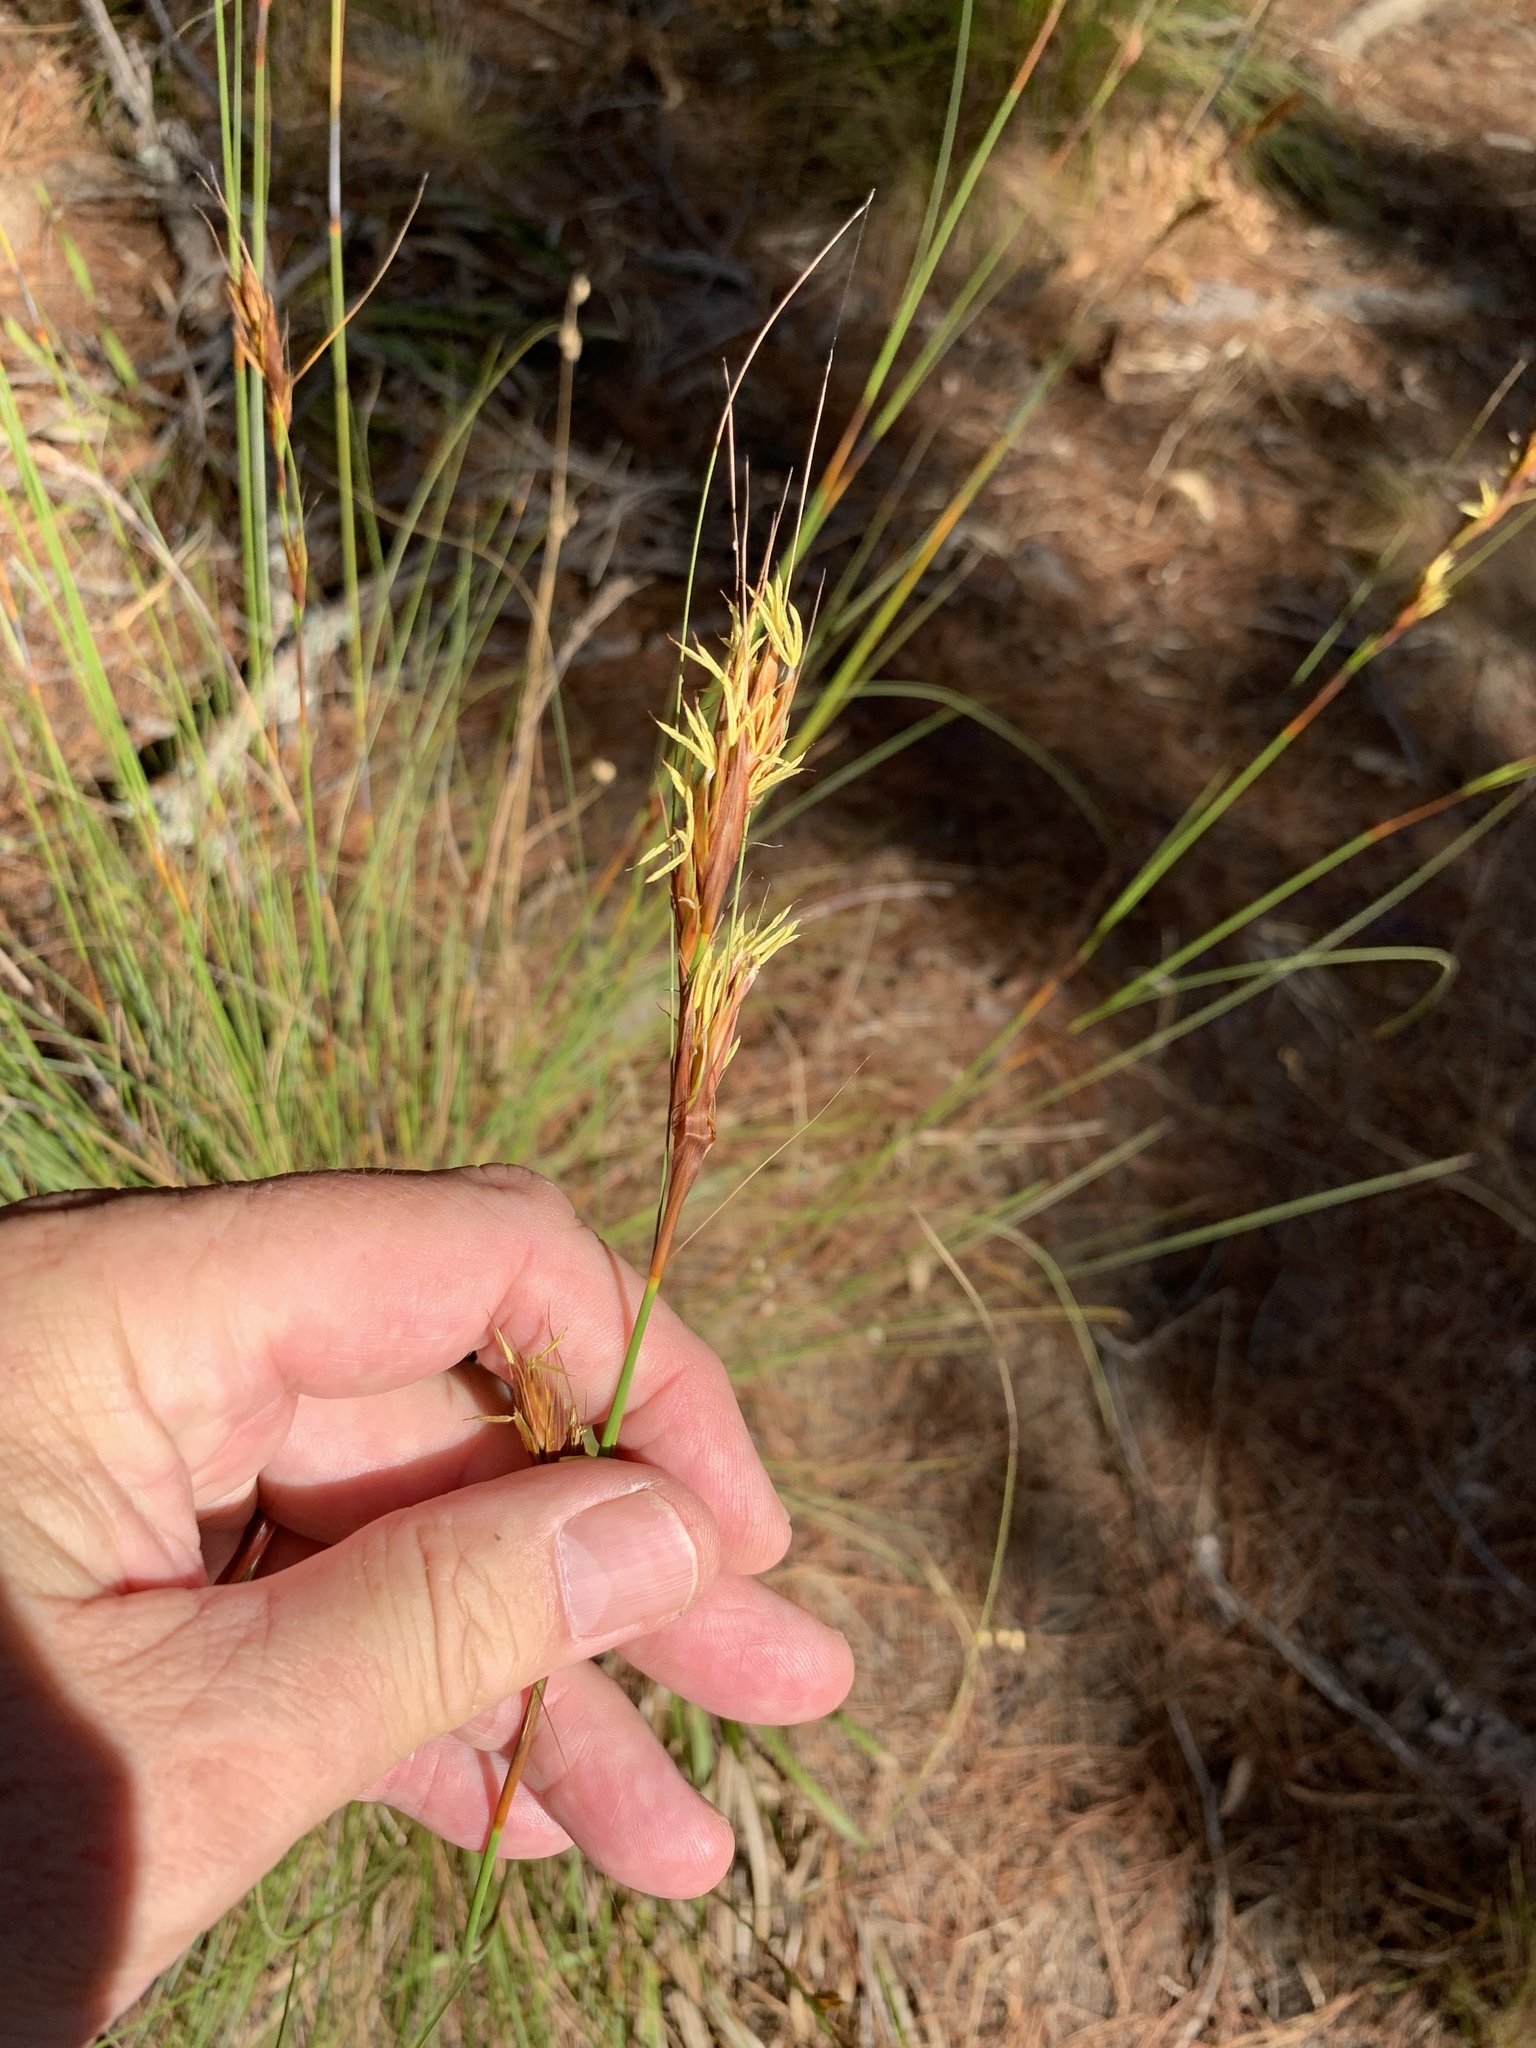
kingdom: Plantae
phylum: Tracheophyta
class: Liliopsida
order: Poales
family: Cyperaceae
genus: Tetraria
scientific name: Tetraria ustulata
